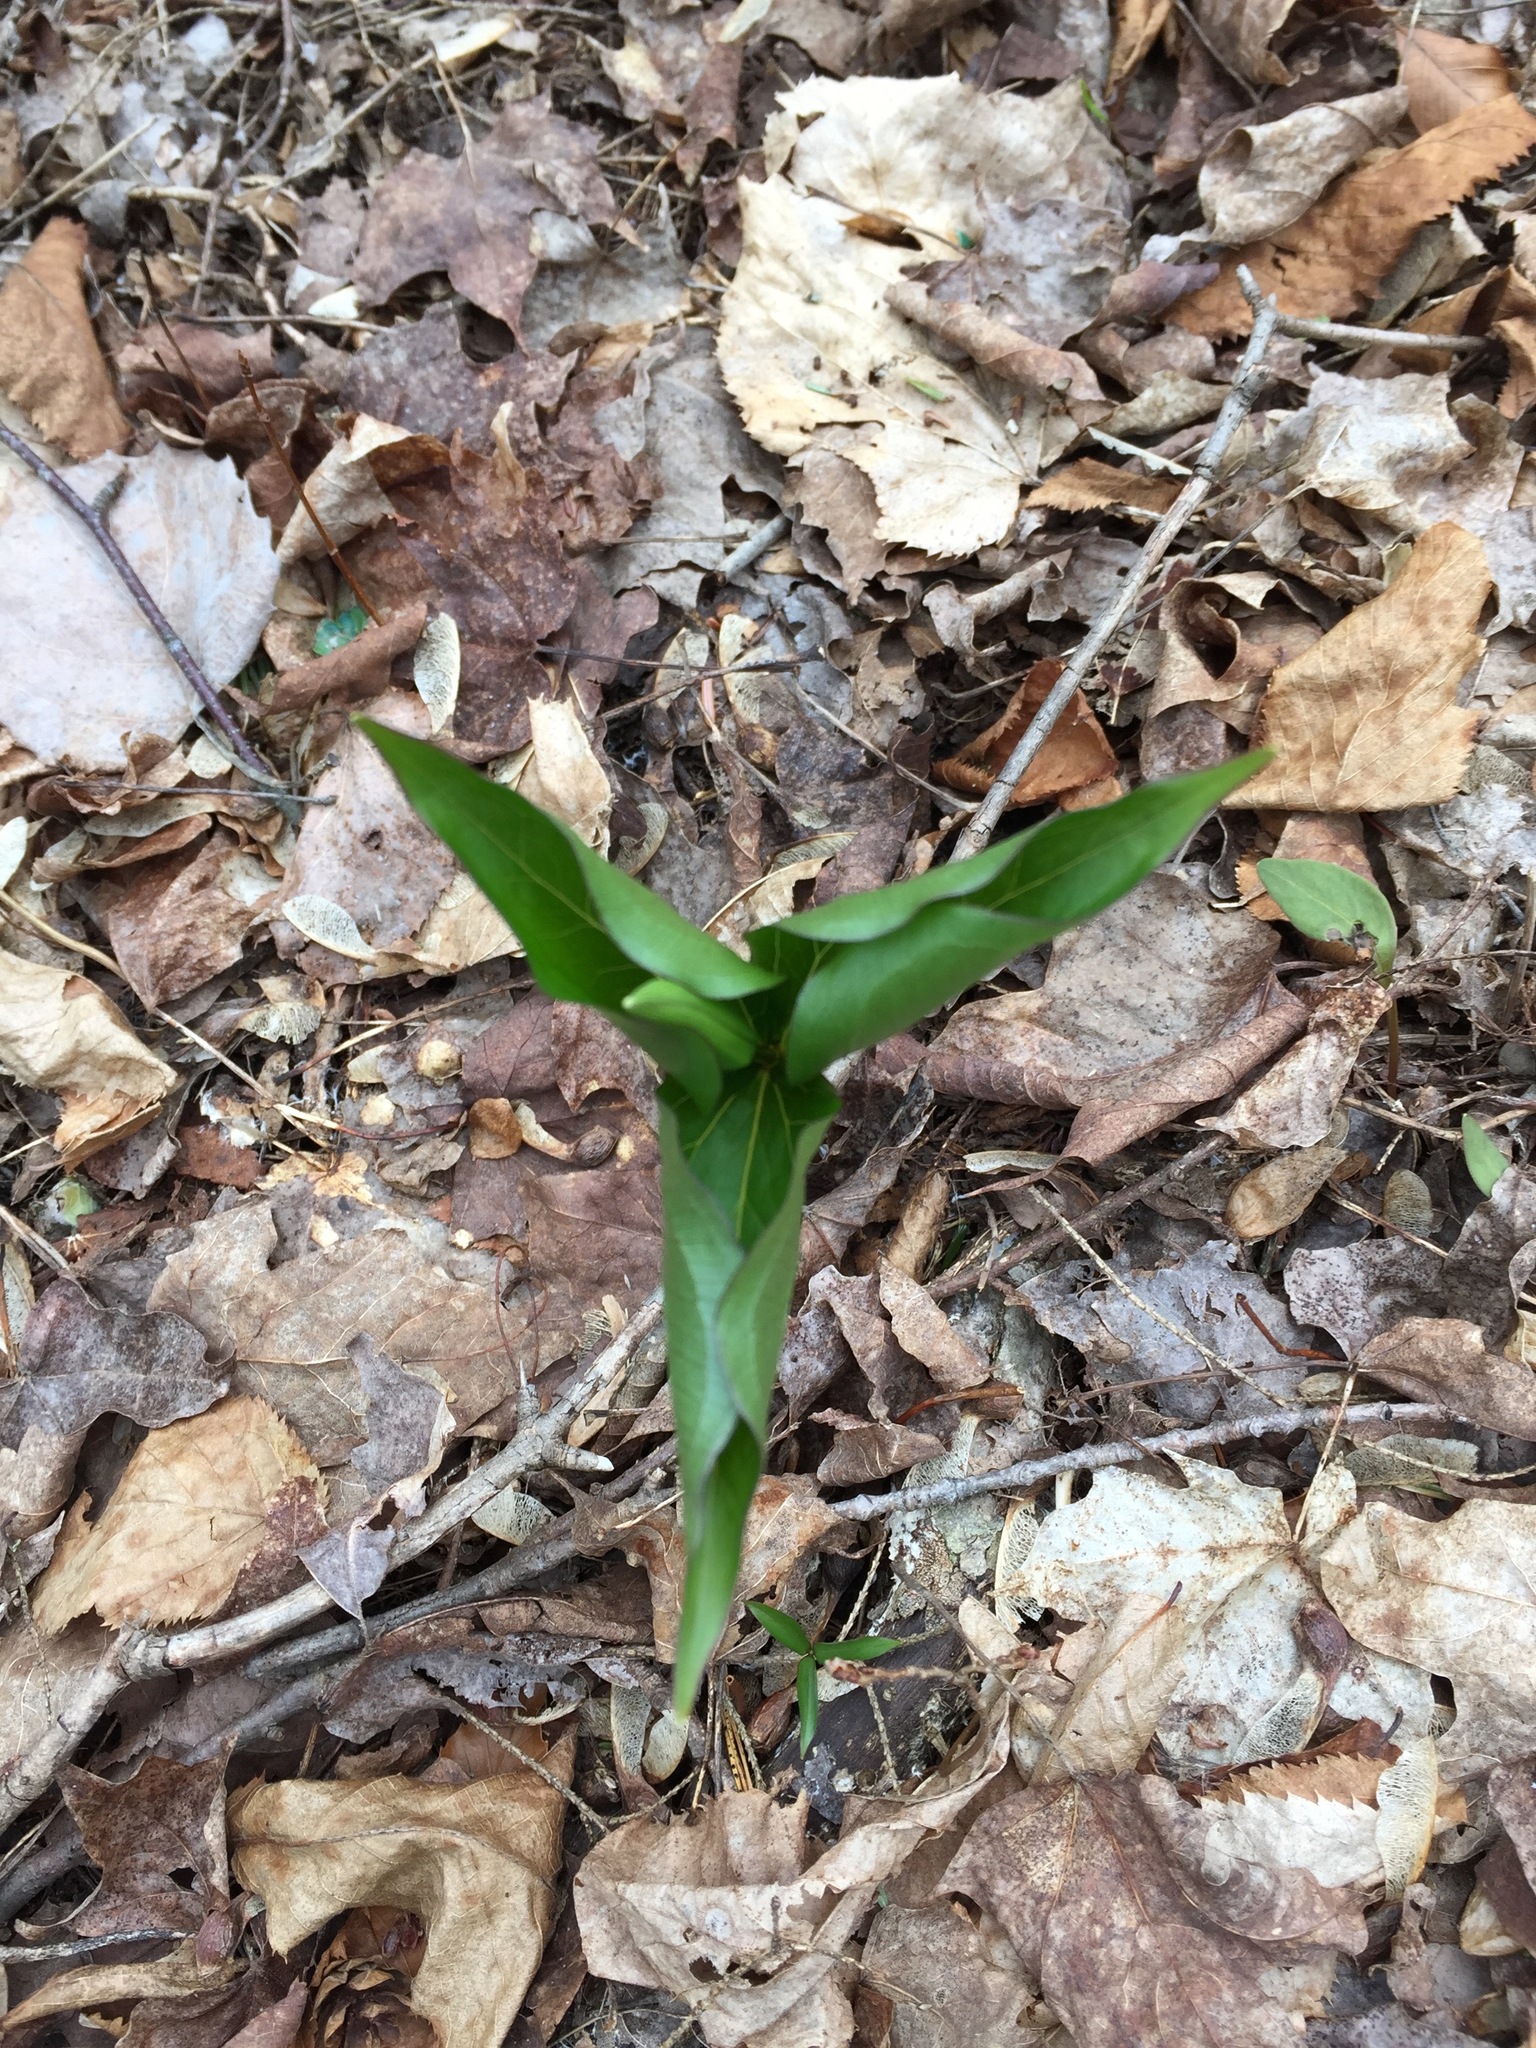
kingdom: Plantae
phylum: Tracheophyta
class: Liliopsida
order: Liliales
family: Melanthiaceae
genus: Trillium
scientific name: Trillium grandiflorum
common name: Great white trillium
